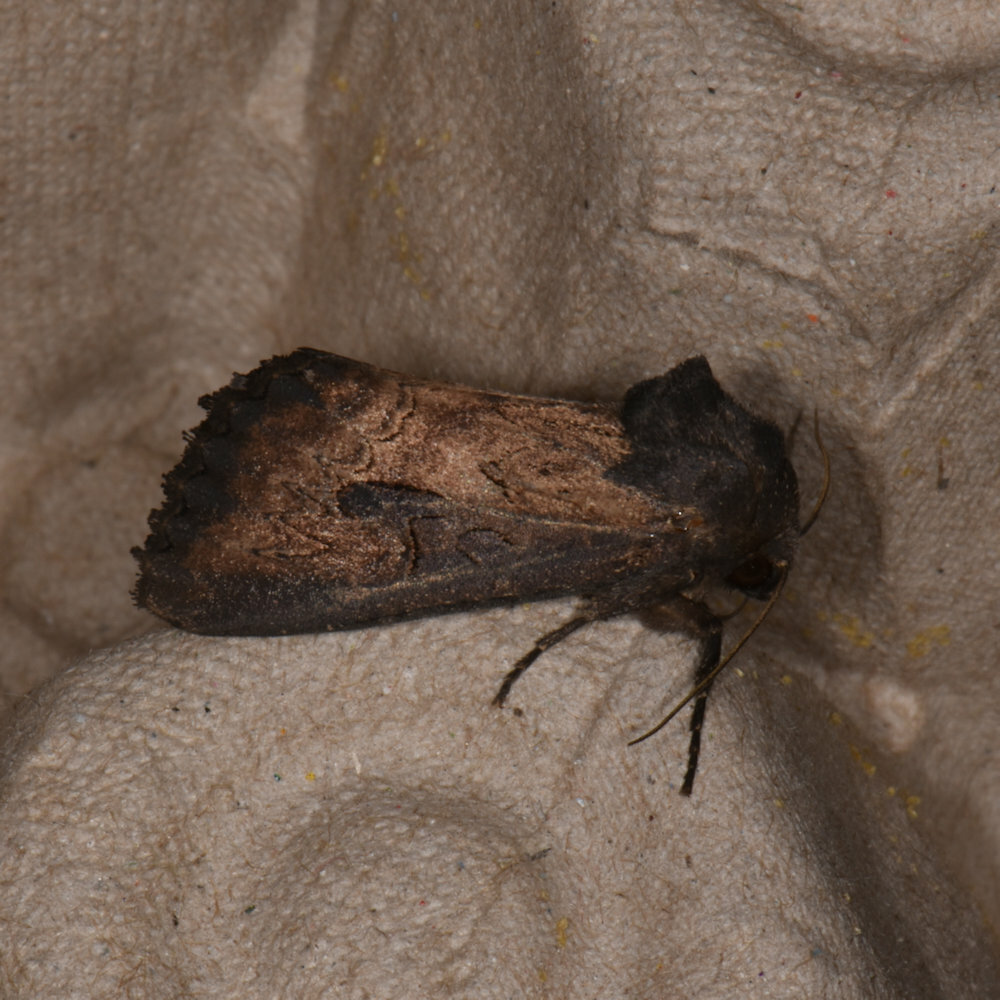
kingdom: Animalia
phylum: Arthropoda
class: Insecta
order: Lepidoptera
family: Noctuidae
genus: Macronoctua
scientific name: Macronoctua onusta
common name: Iris borer
